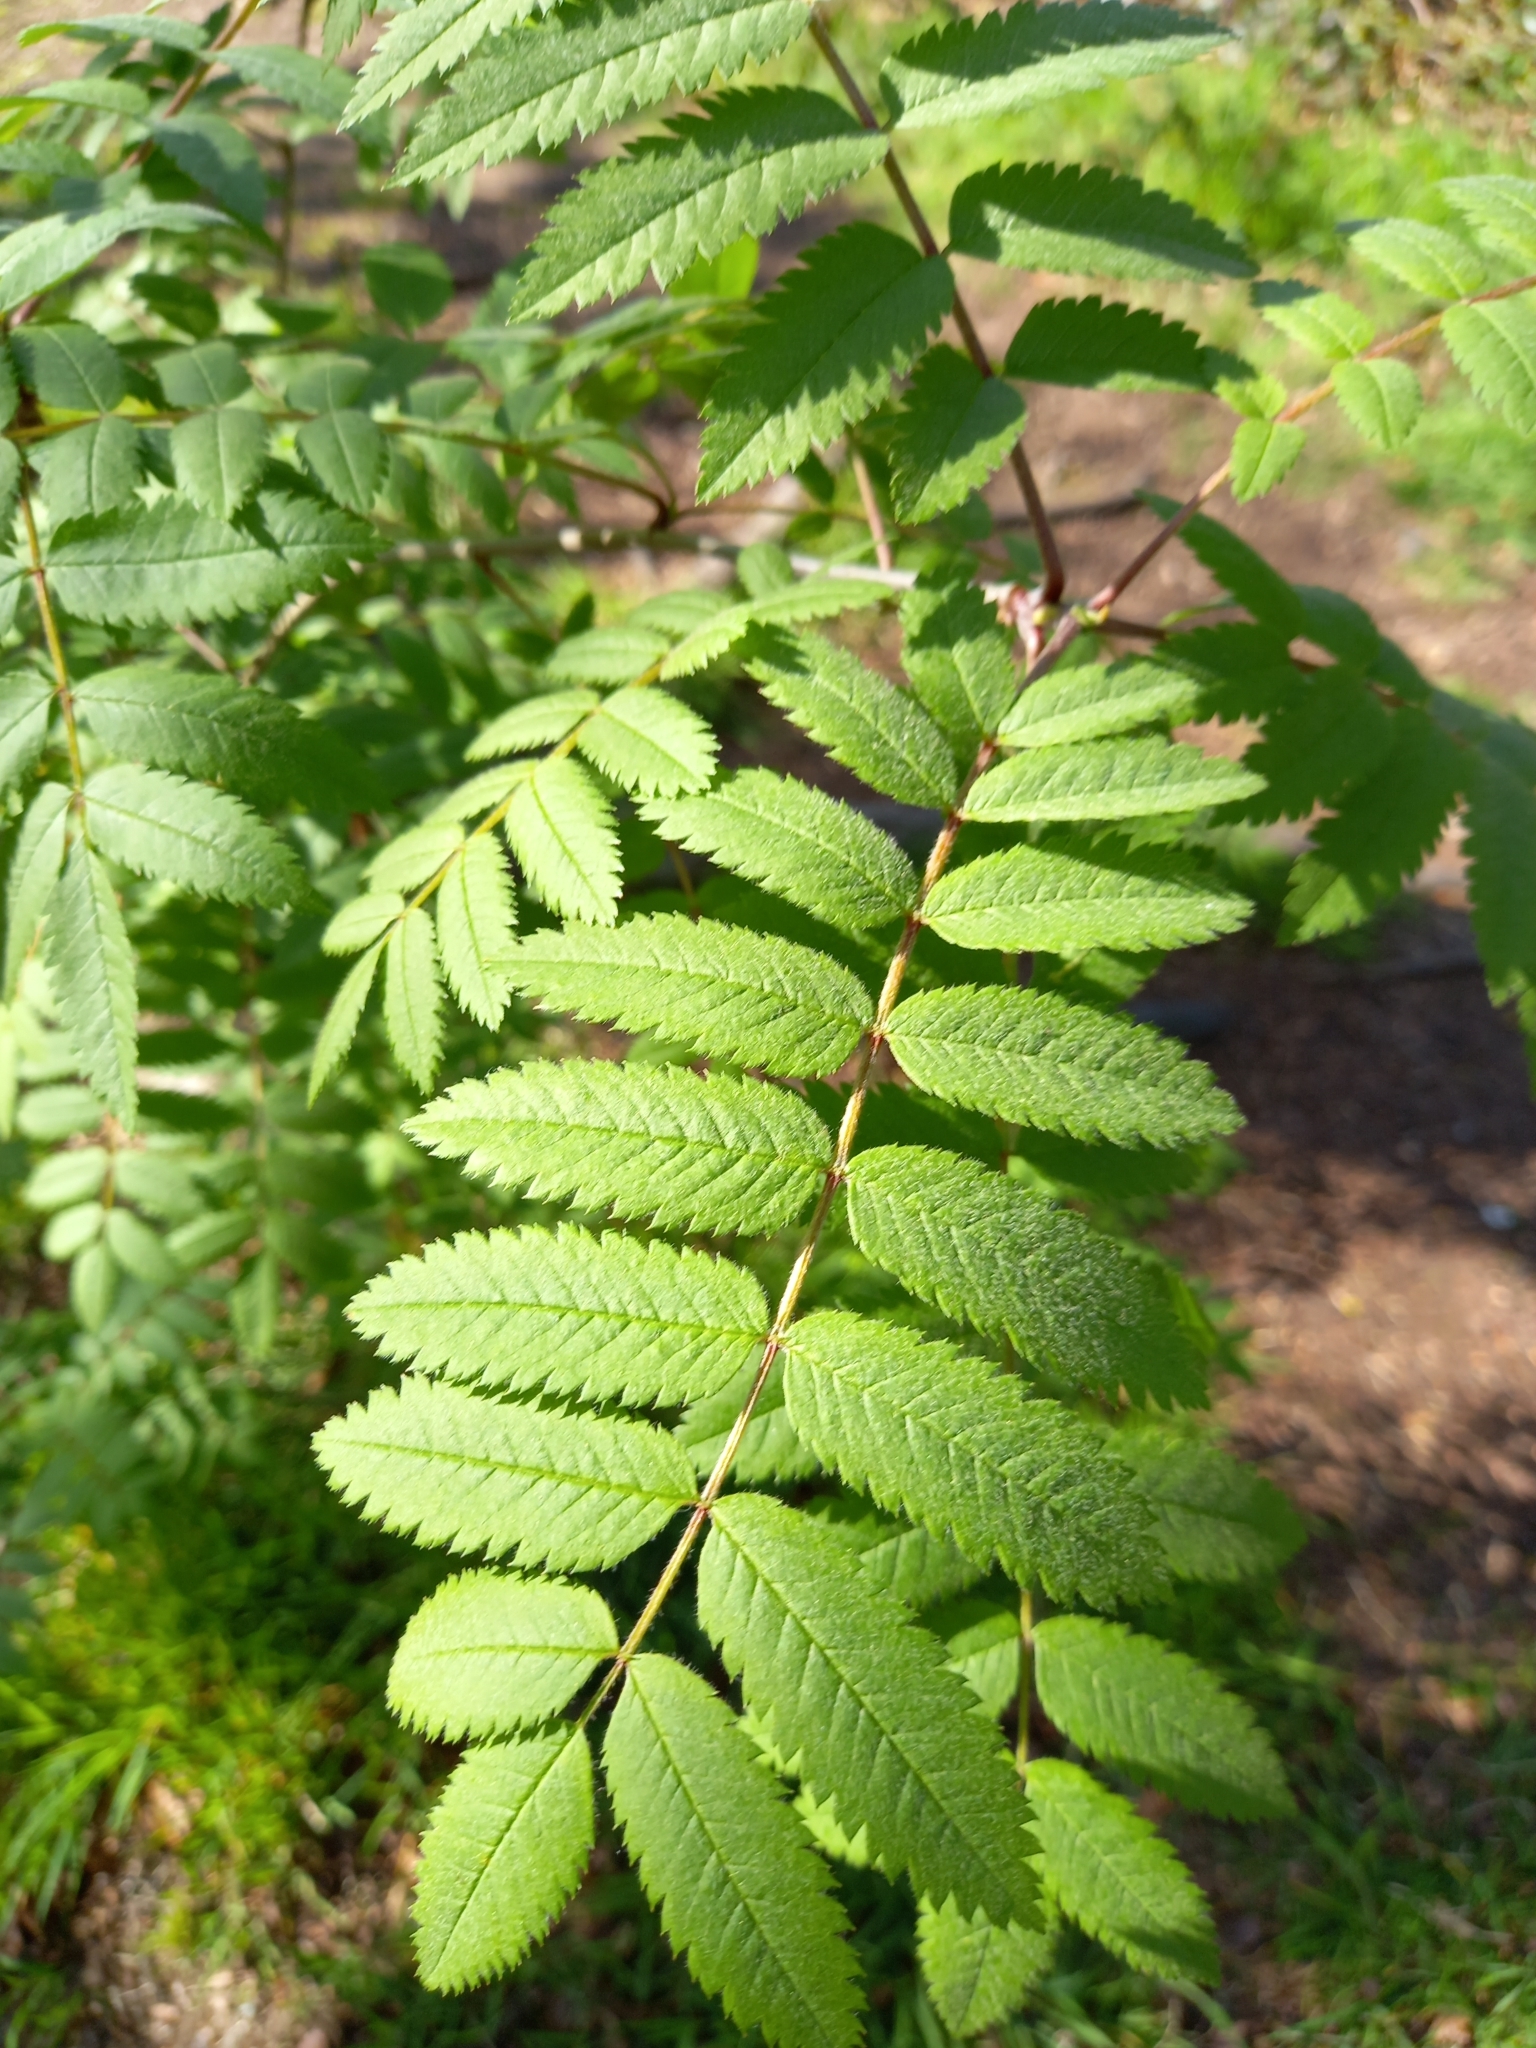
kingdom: Plantae
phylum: Tracheophyta
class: Magnoliopsida
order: Rosales
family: Rosaceae
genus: Sorbus
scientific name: Sorbus aucuparia
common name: Rowan
